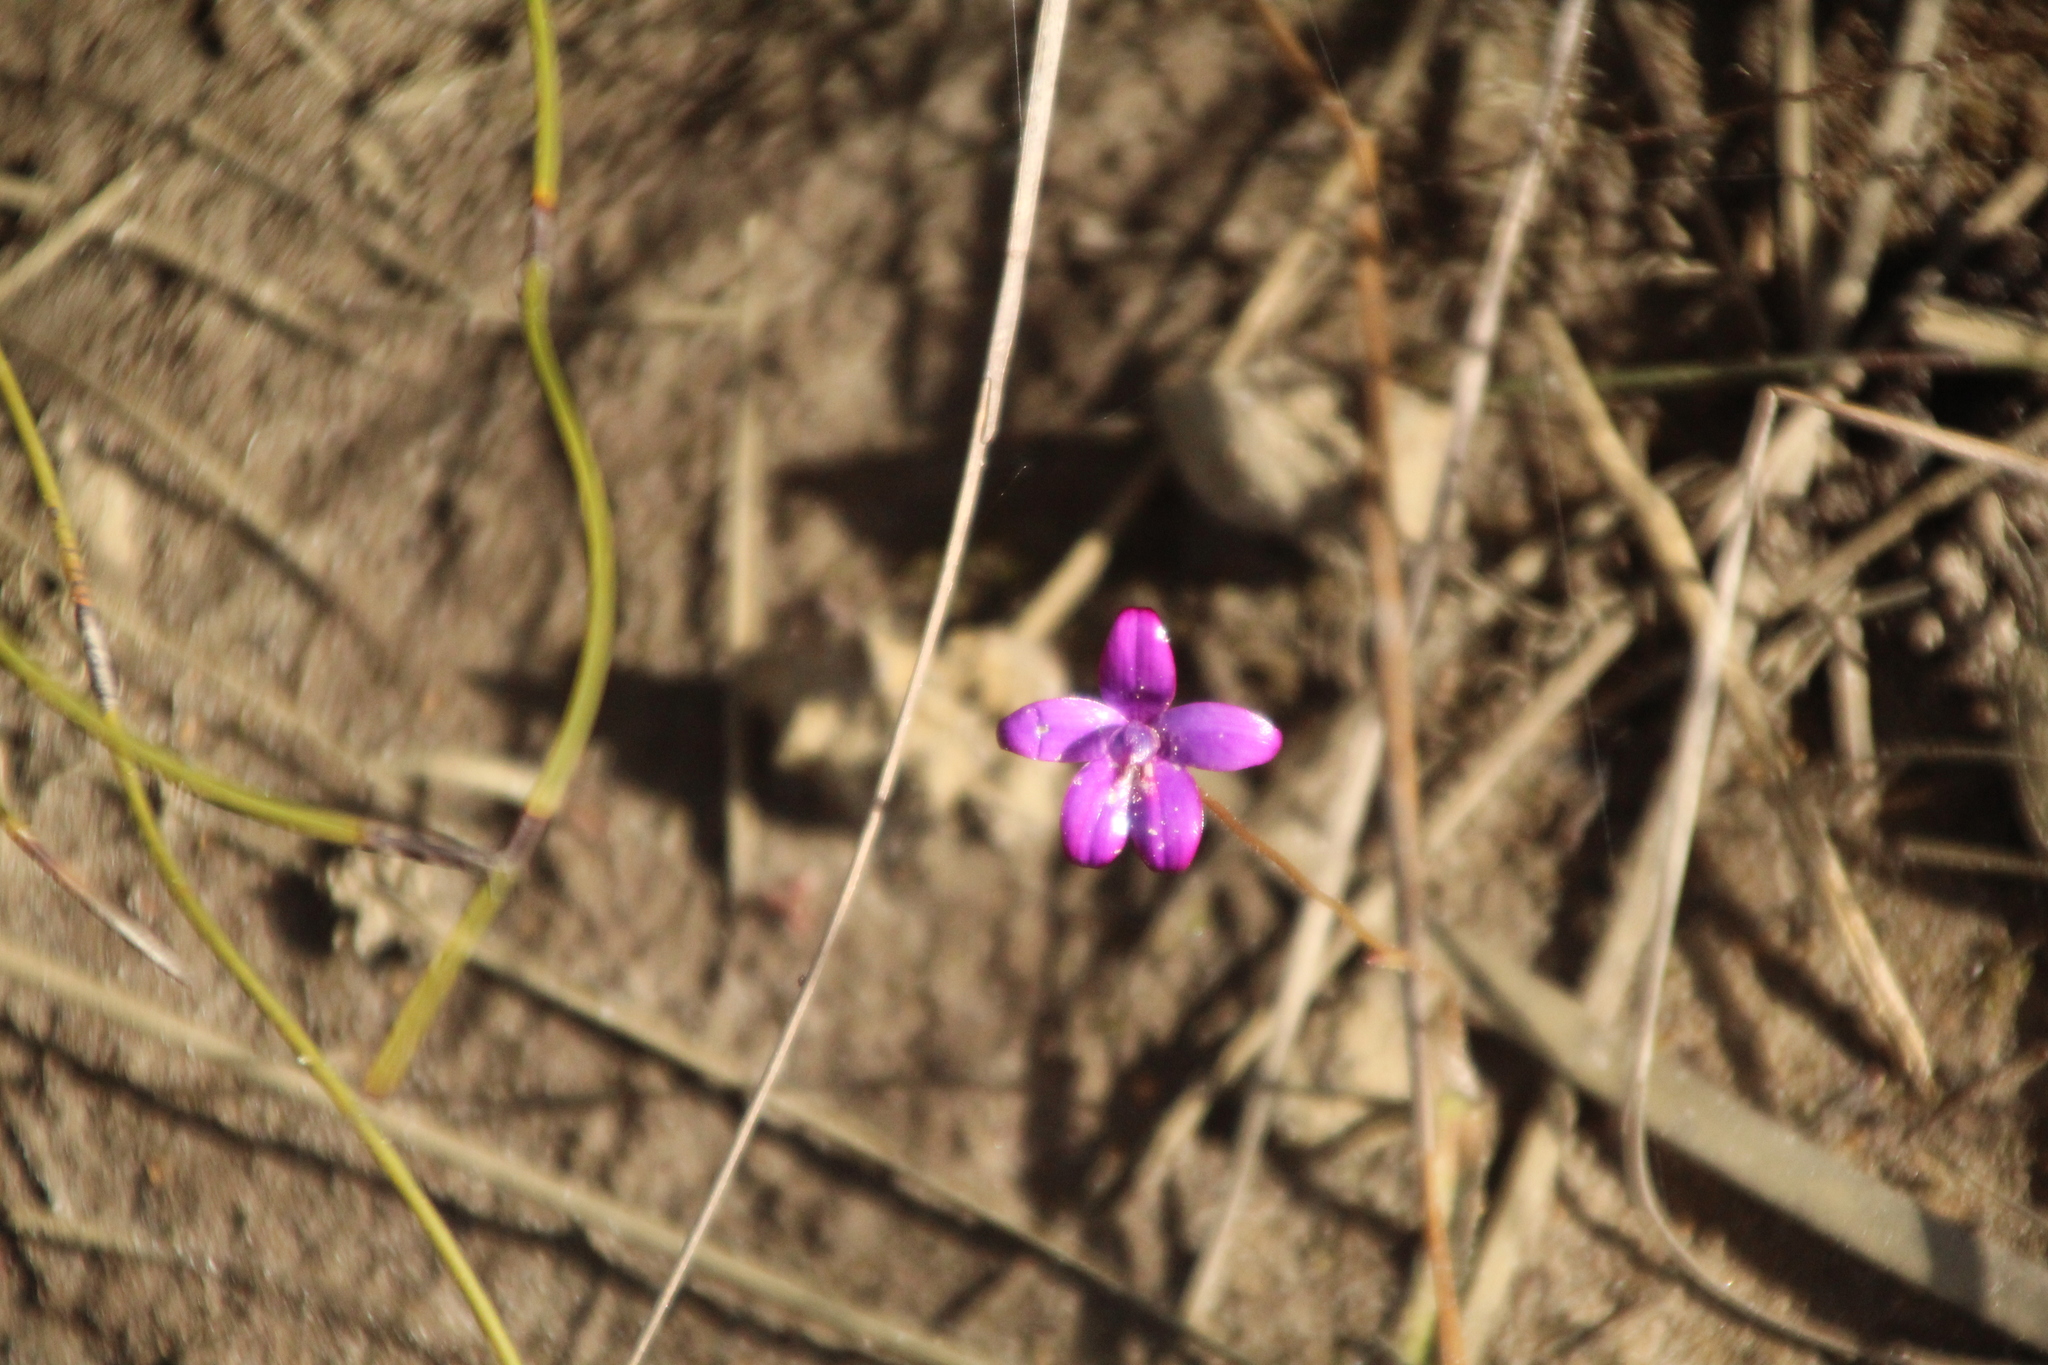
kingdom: Plantae
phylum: Tracheophyta
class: Liliopsida
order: Asparagales
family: Orchidaceae
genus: Caladenia
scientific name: Caladenia brunonis
